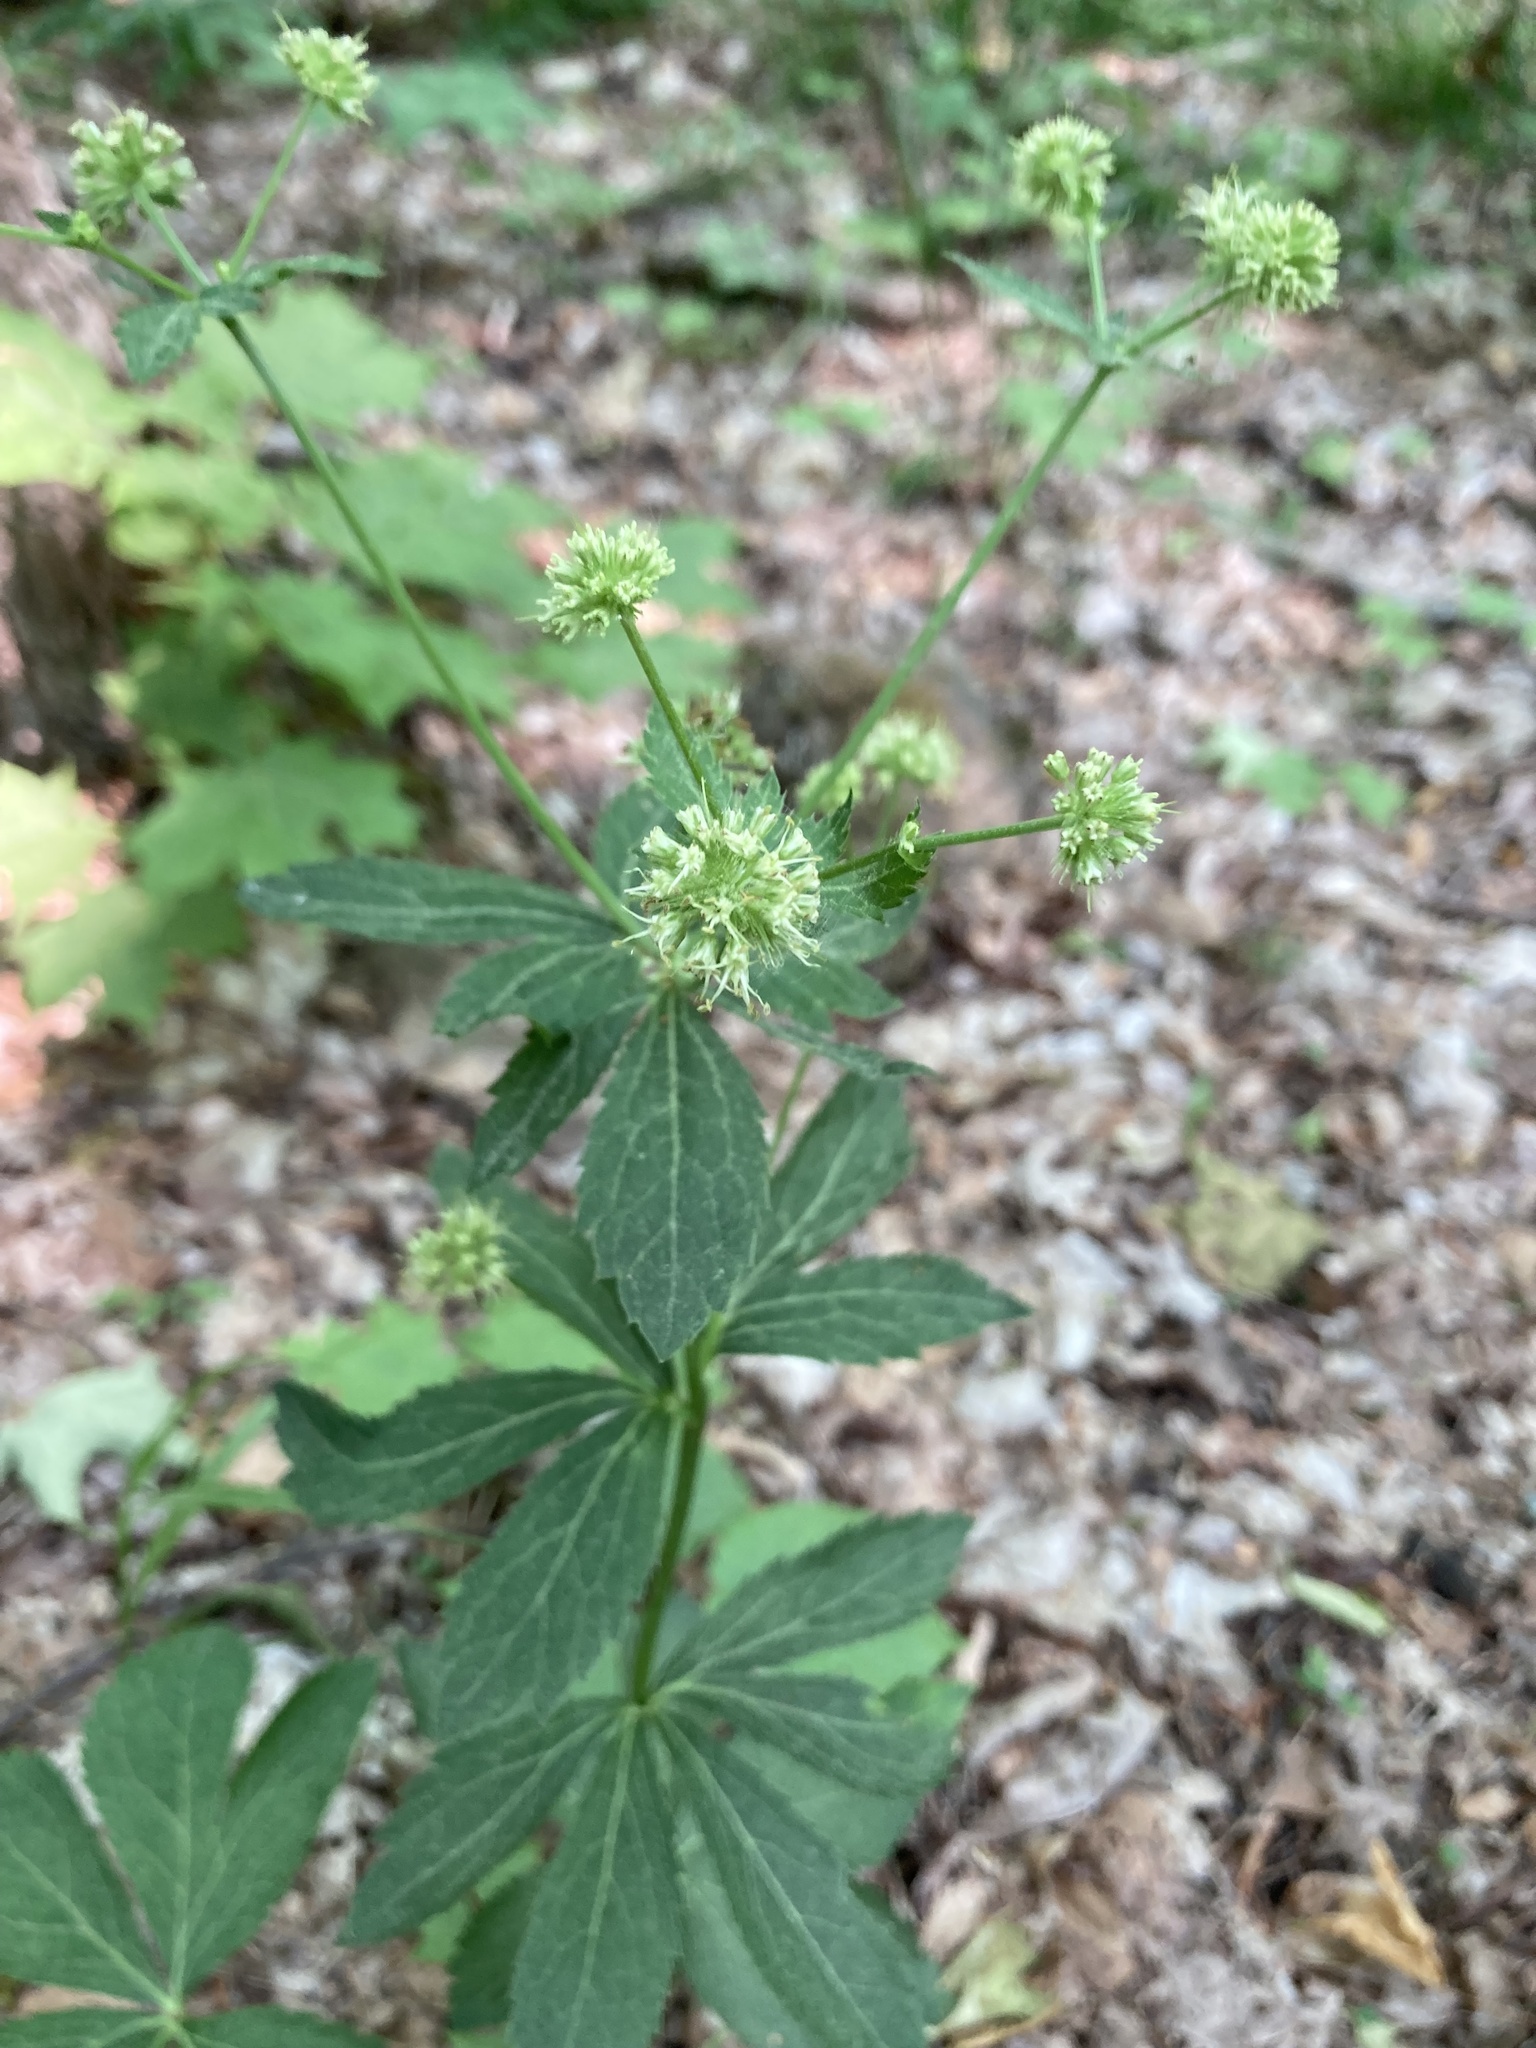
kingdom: Plantae
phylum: Tracheophyta
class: Magnoliopsida
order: Apiales
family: Apiaceae
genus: Sanicula
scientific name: Sanicula marilandica
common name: Black snakeroot
